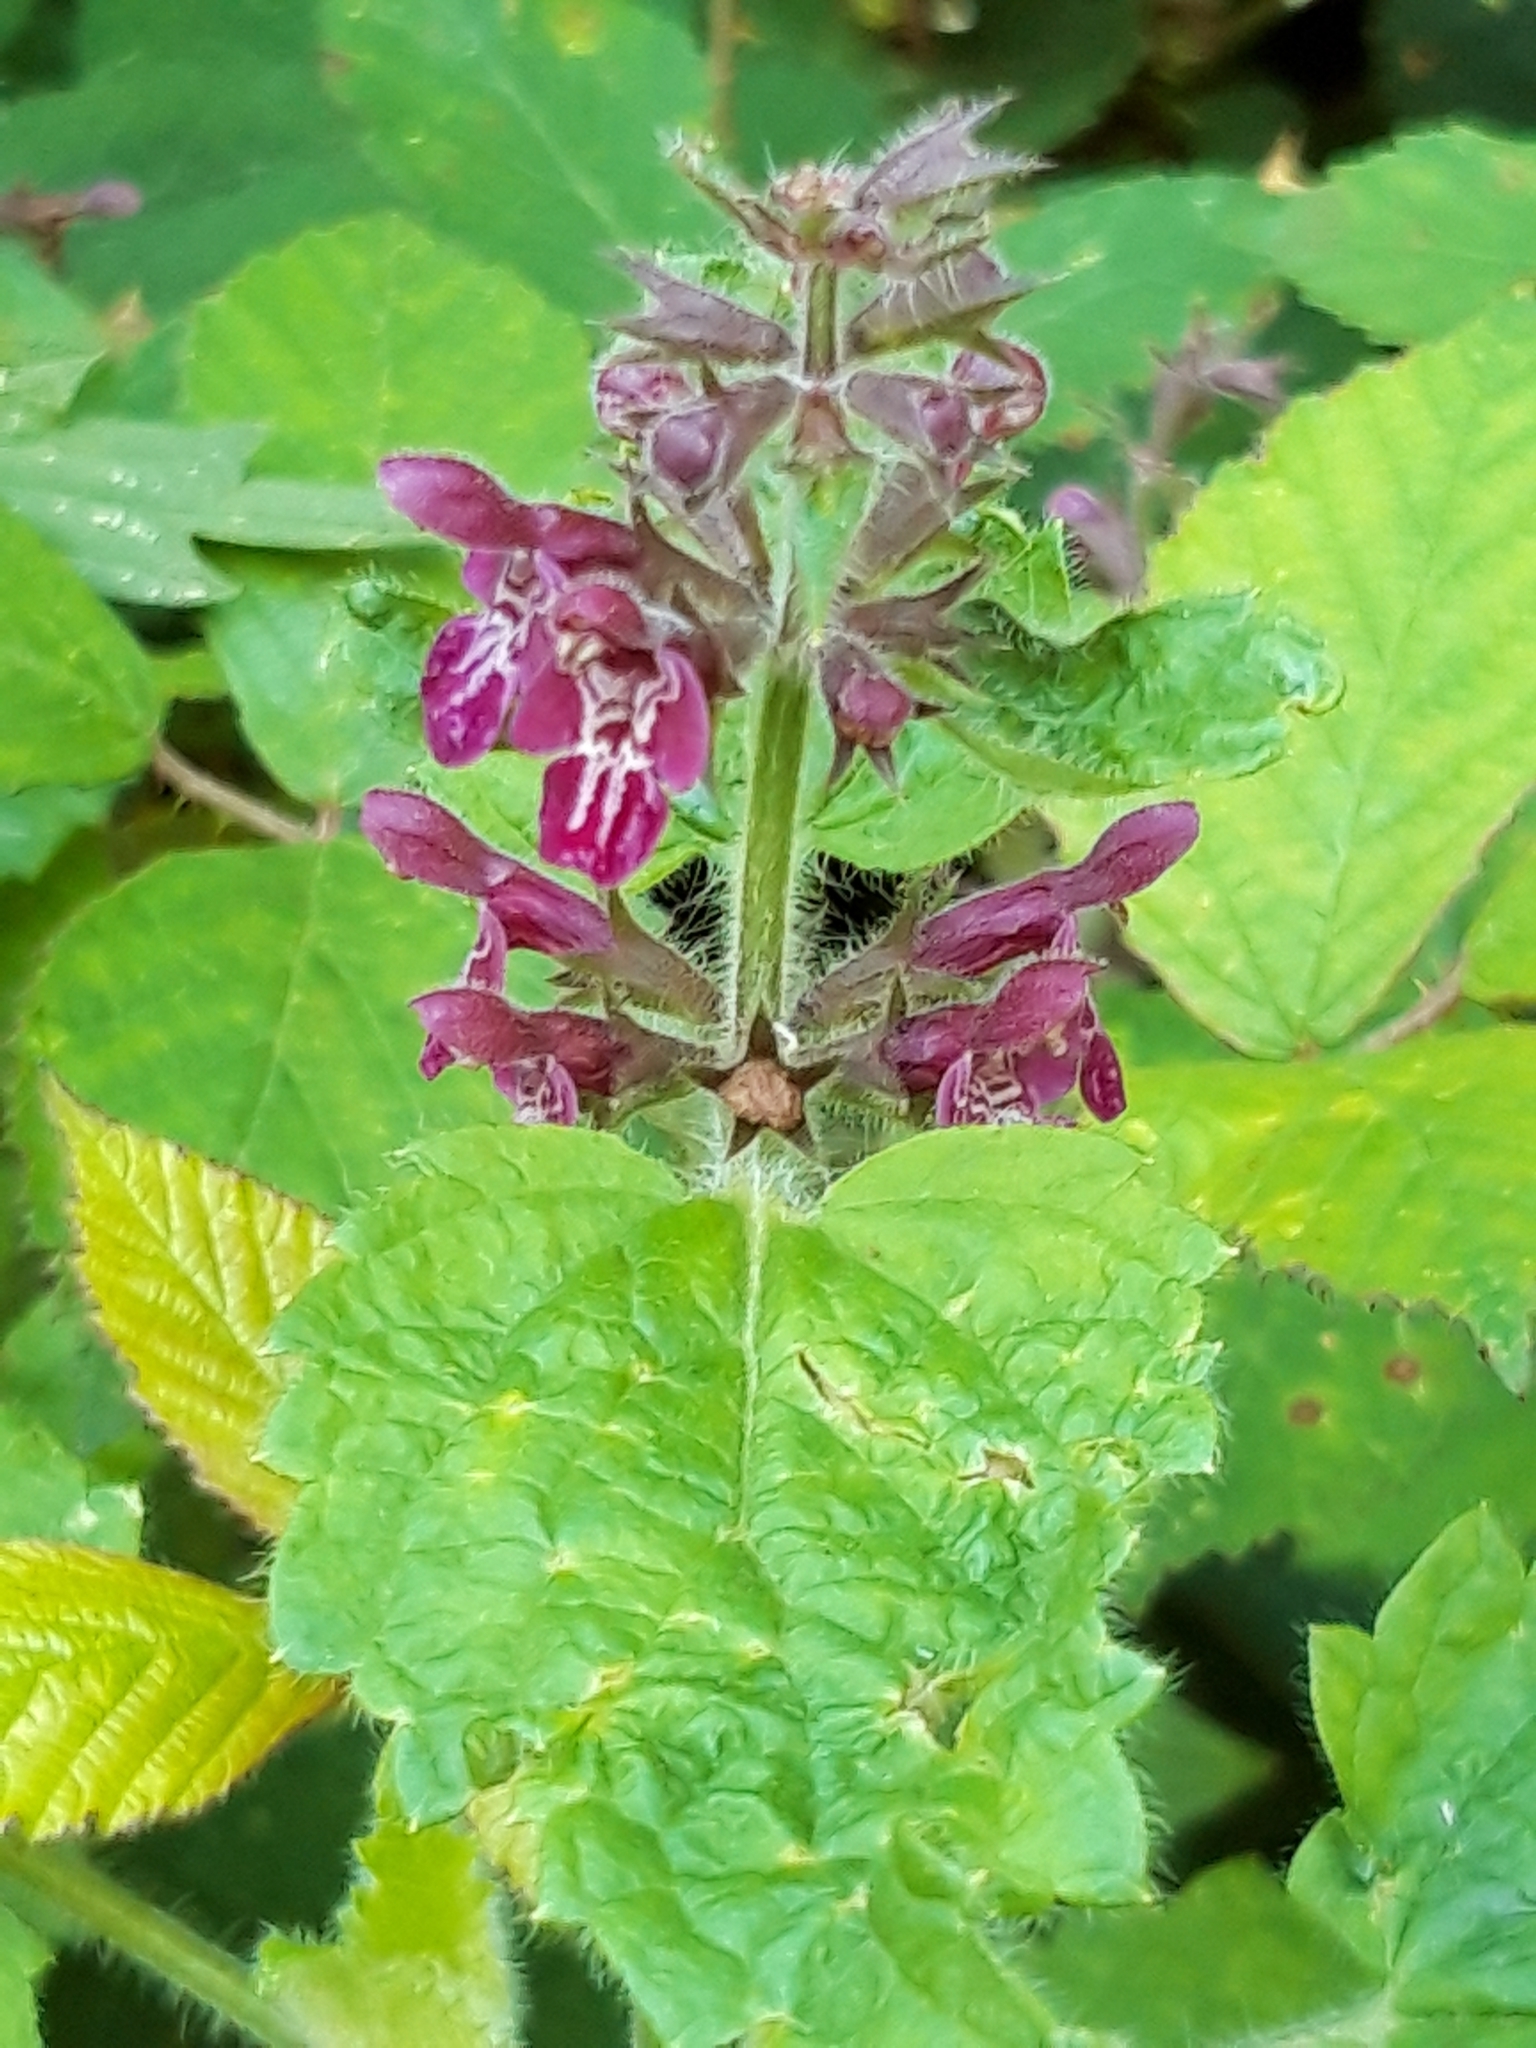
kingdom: Plantae
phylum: Tracheophyta
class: Magnoliopsida
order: Lamiales
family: Lamiaceae
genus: Stachys
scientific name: Stachys sylvatica
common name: Hedge woundwort
